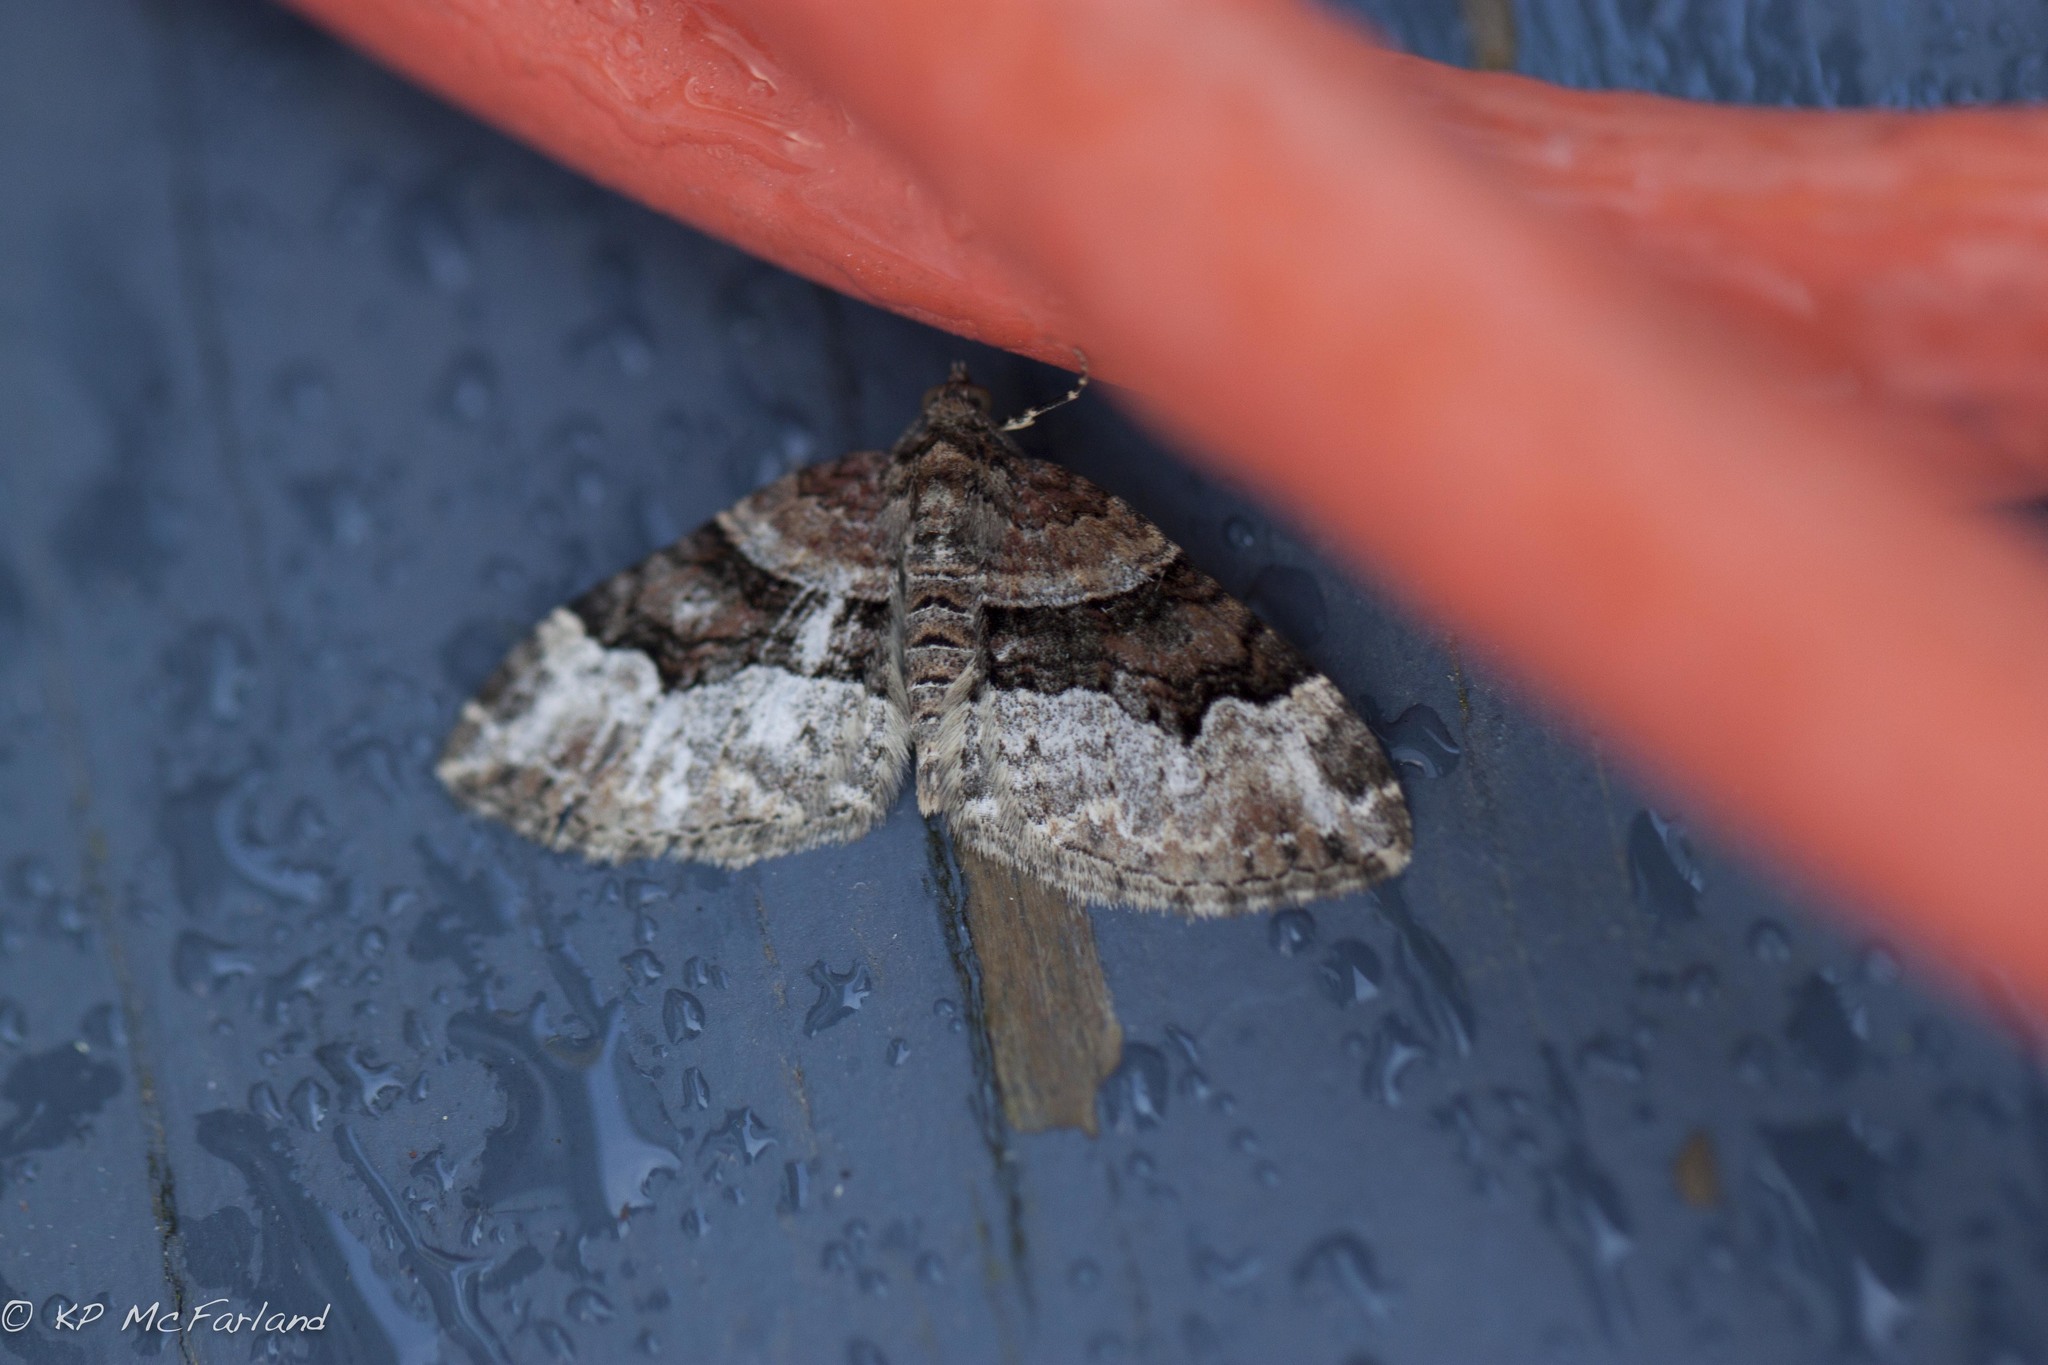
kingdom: Animalia
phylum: Arthropoda
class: Insecta
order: Lepidoptera
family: Geometridae
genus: Xanthorhoe
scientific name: Xanthorhoe lacustrata
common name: Toothed brown carpet
